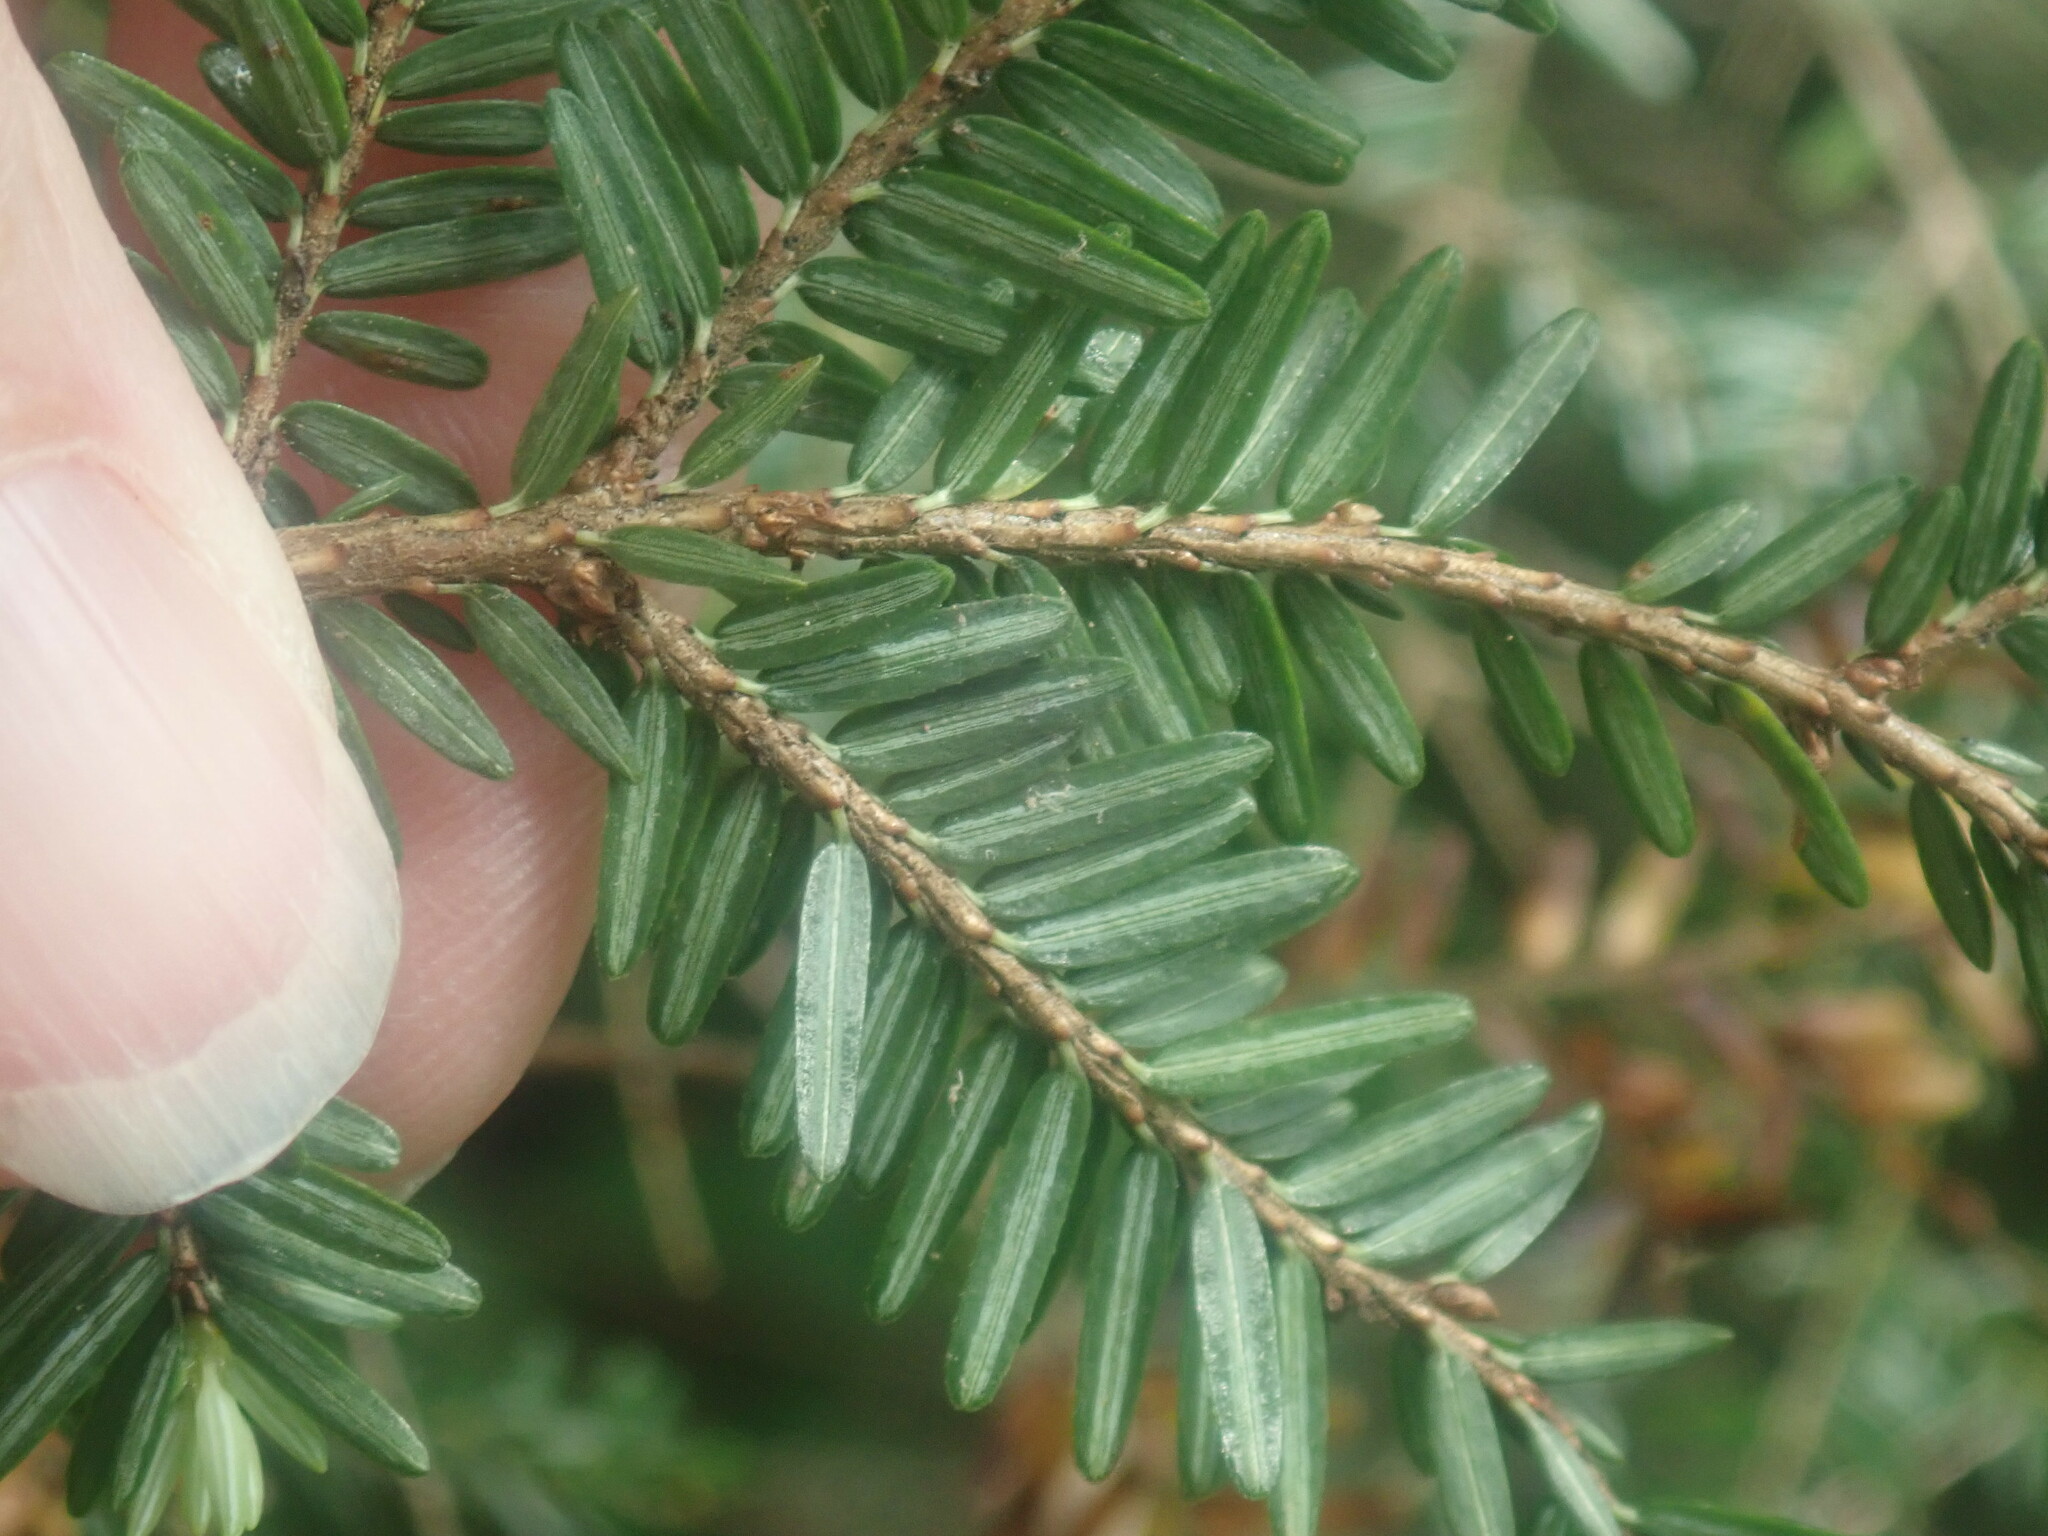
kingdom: Plantae
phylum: Tracheophyta
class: Pinopsida
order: Pinales
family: Pinaceae
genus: Tsuga
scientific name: Tsuga canadensis
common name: Eastern hemlock
